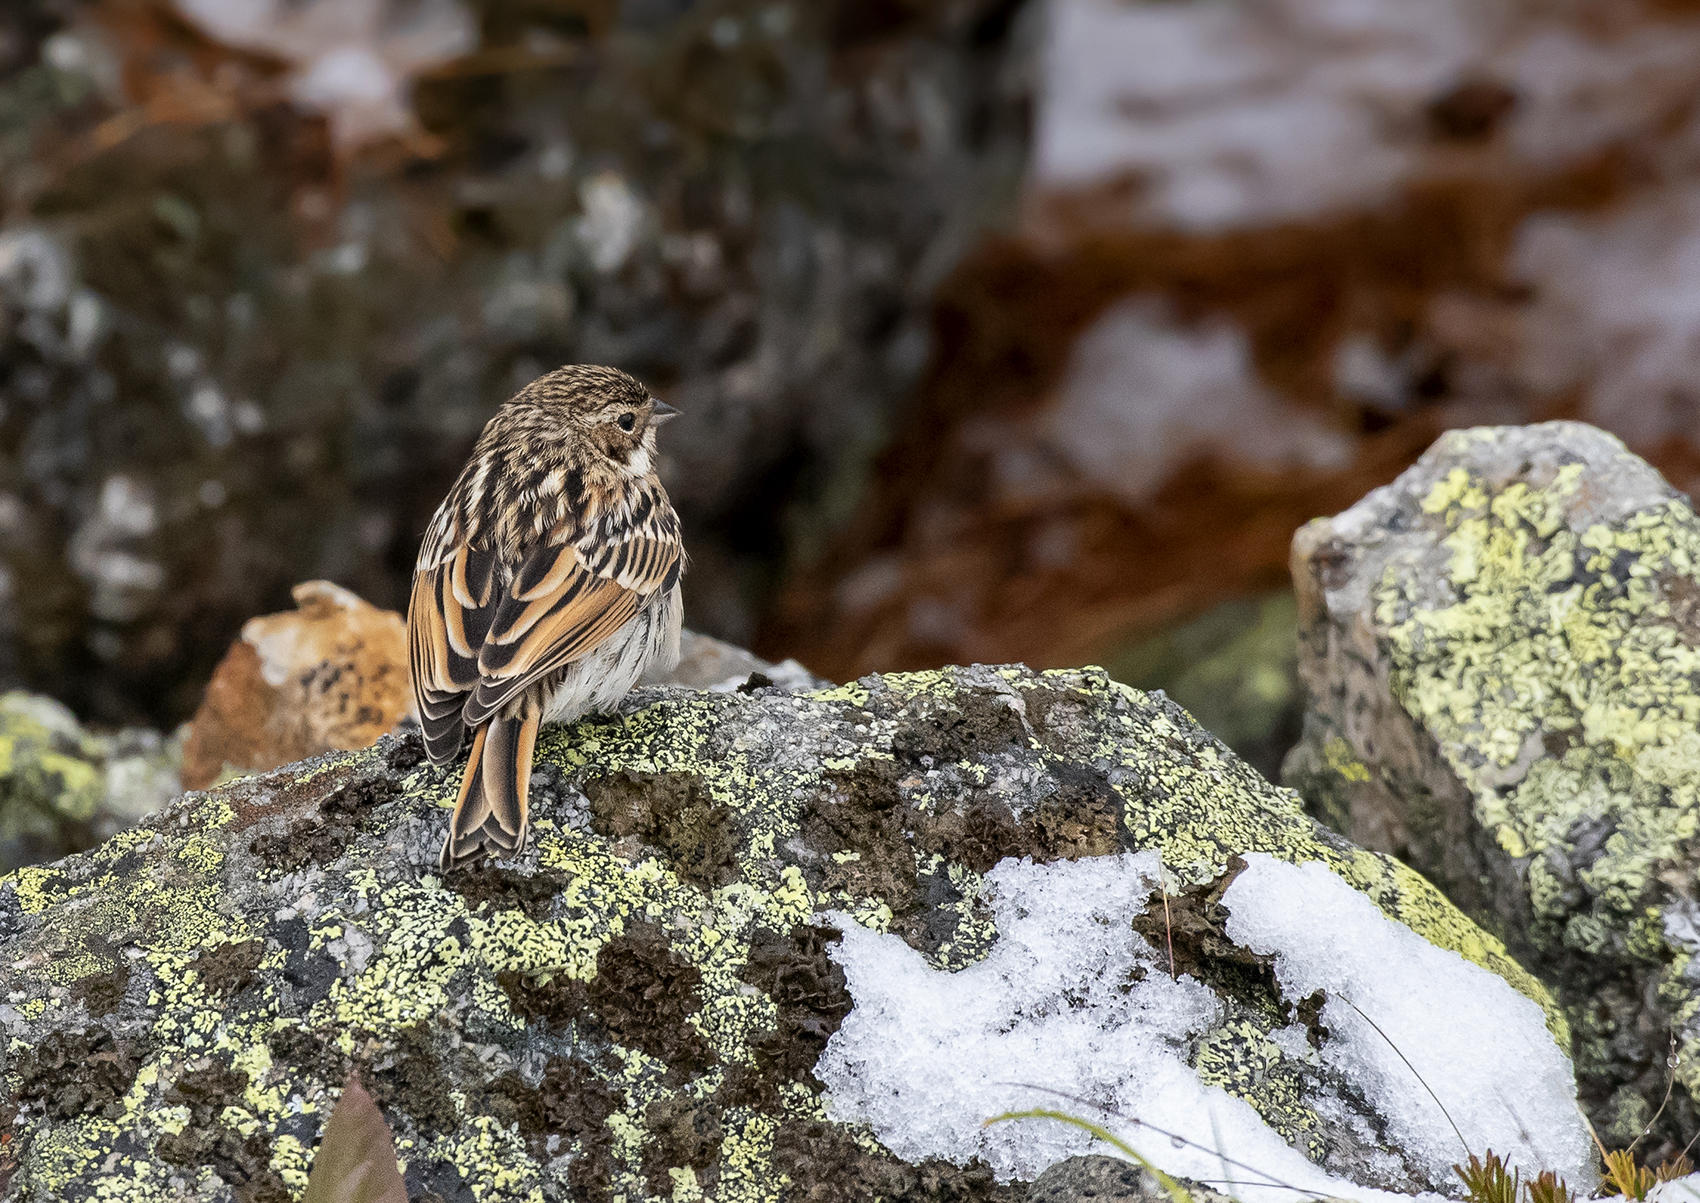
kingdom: Animalia
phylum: Chordata
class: Aves
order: Passeriformes
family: Emberizidae
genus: Emberiza
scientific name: Emberiza pallasi
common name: Pallas's reed bunting
